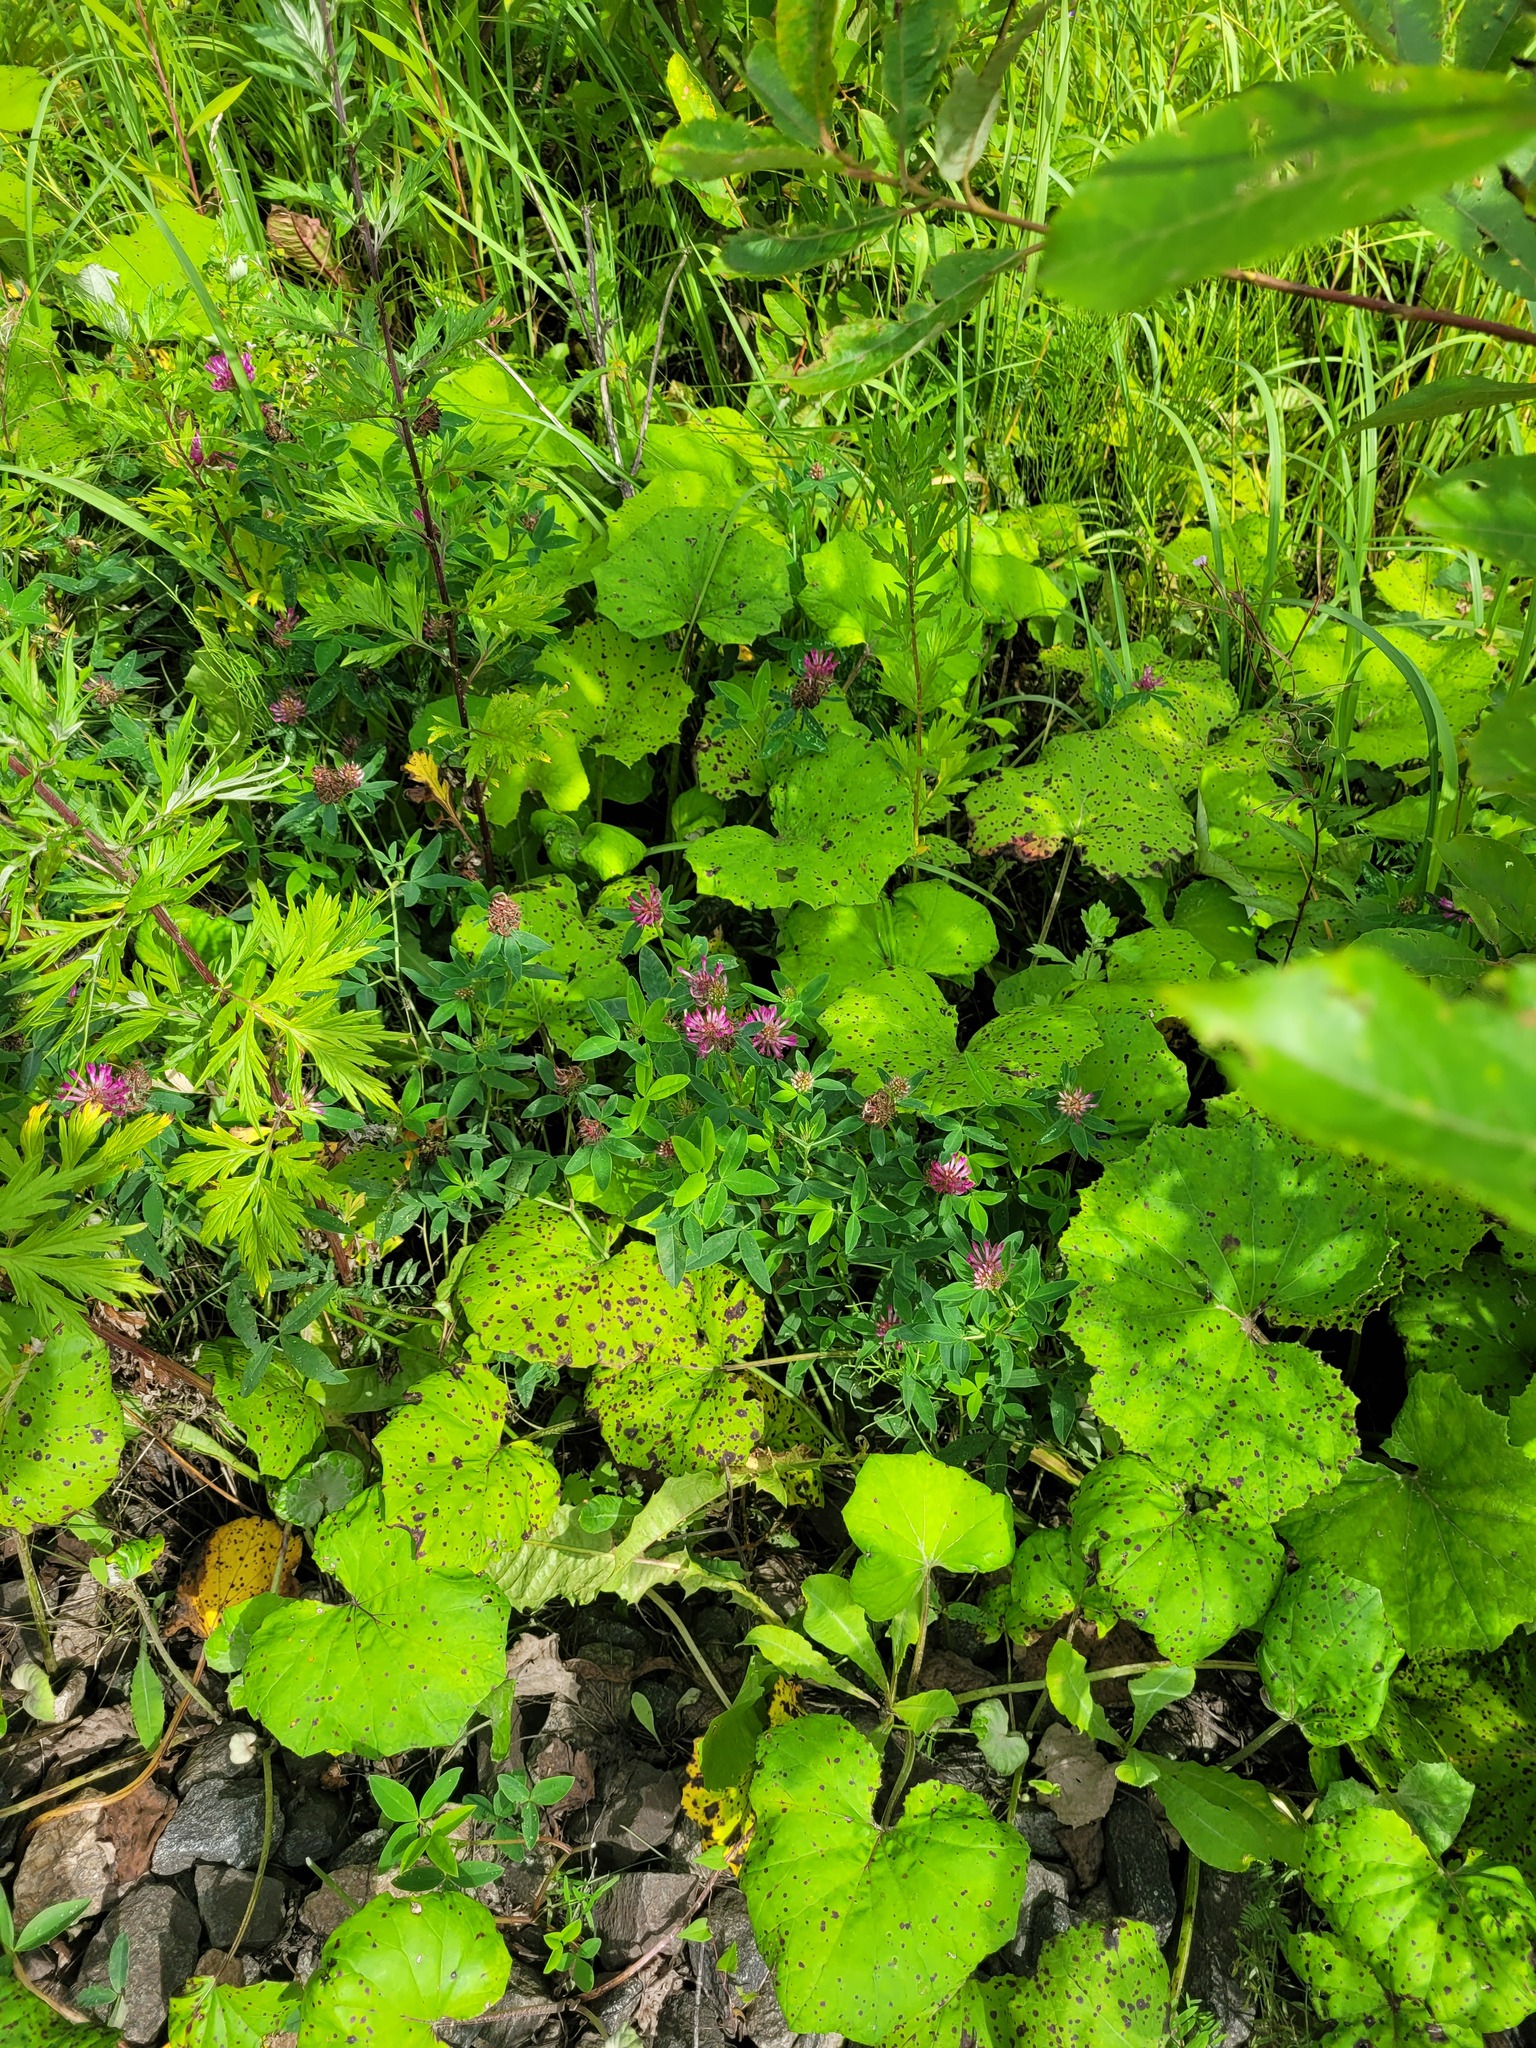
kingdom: Plantae
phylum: Tracheophyta
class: Magnoliopsida
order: Fabales
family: Fabaceae
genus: Trifolium
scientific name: Trifolium medium
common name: Zigzag clover
